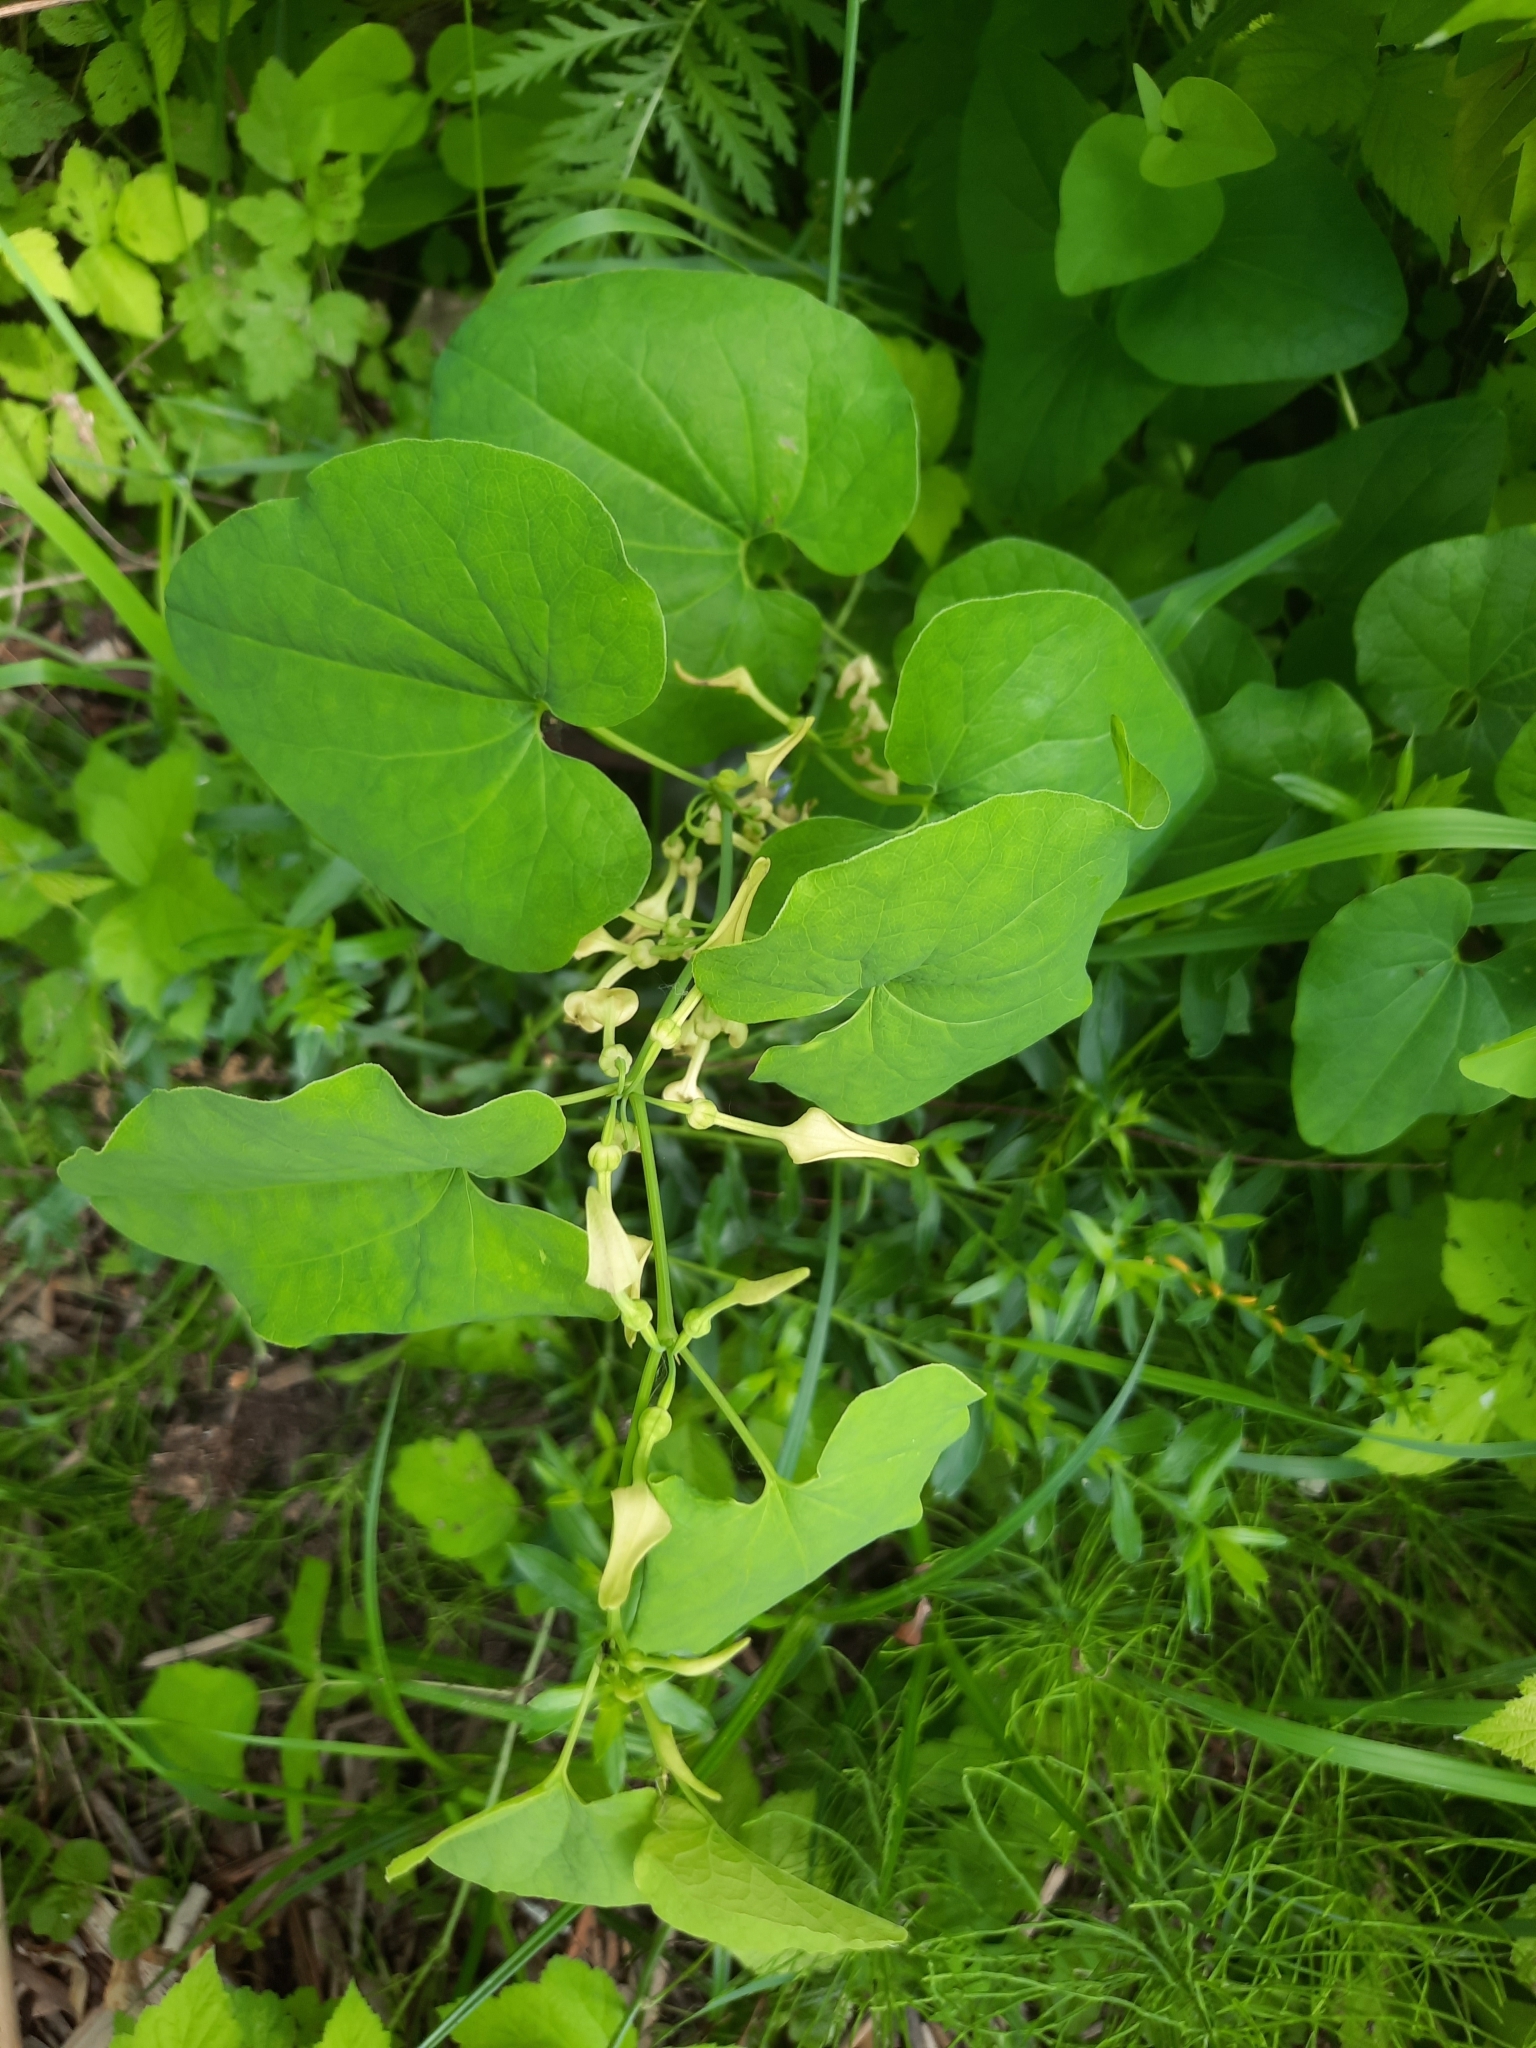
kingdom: Plantae
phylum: Tracheophyta
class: Magnoliopsida
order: Piperales
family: Aristolochiaceae
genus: Aristolochia
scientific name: Aristolochia clematitis
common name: Birthwort
